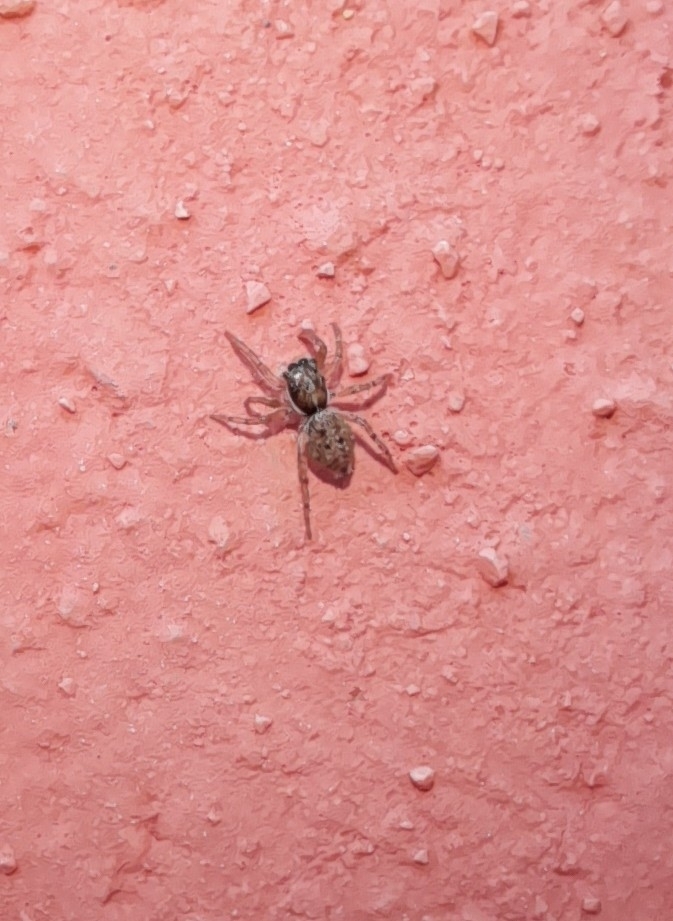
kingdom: Animalia
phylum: Arthropoda
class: Arachnida
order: Araneae
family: Salticidae
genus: Menemerus
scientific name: Menemerus semilimbatus
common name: Jumping spider
